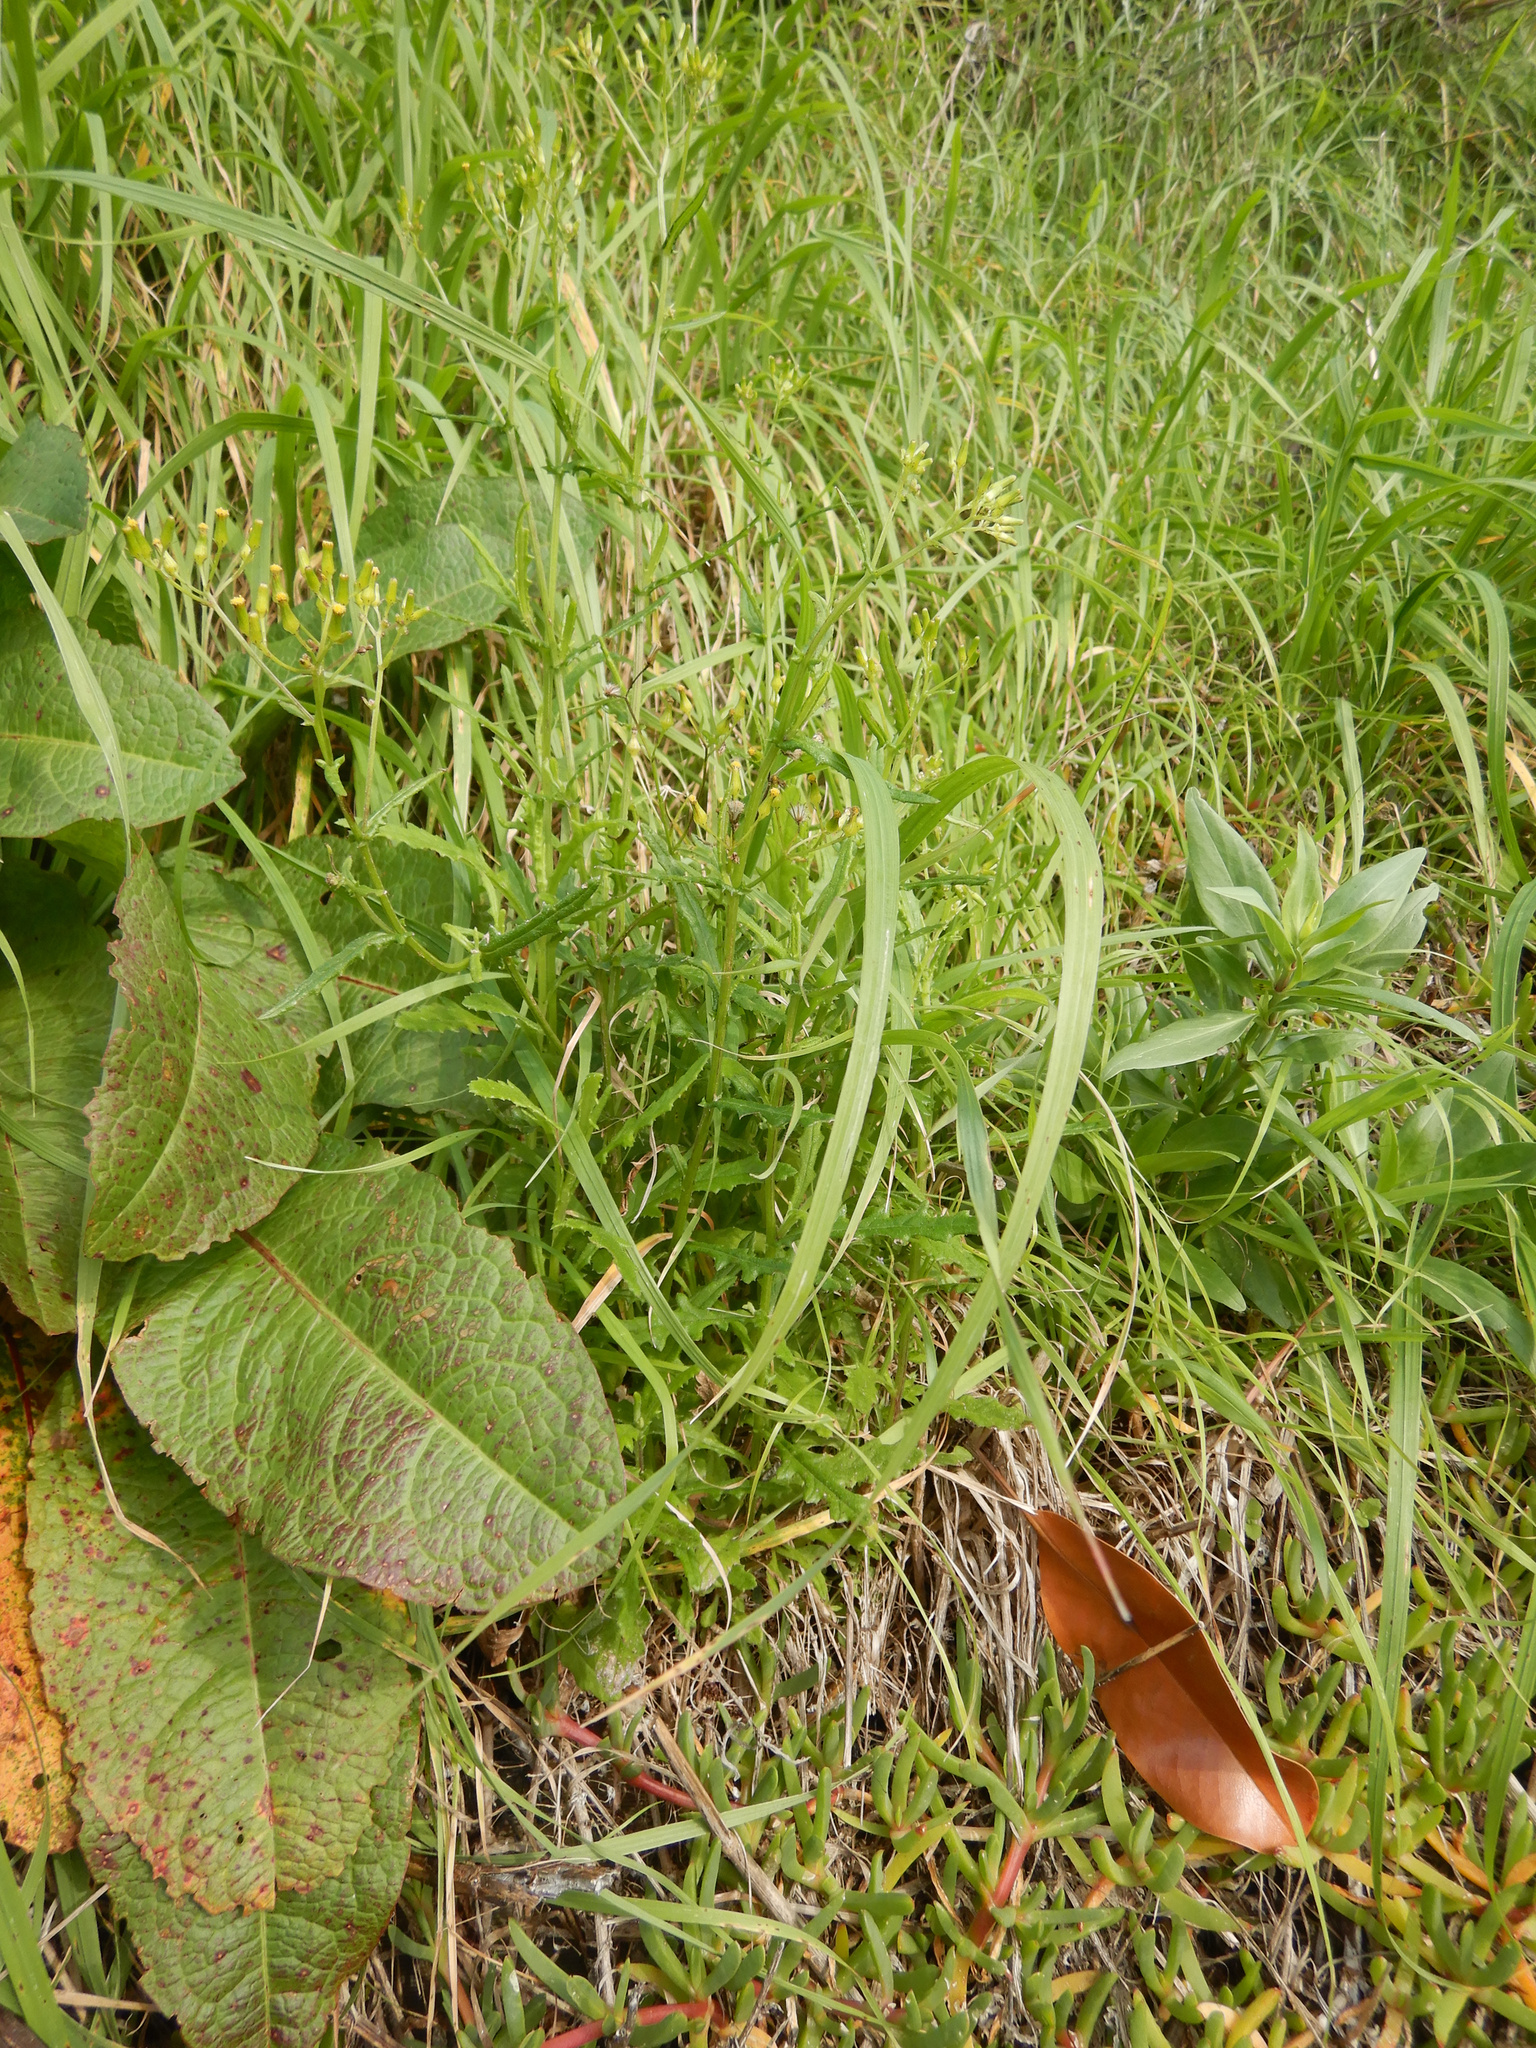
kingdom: Plantae
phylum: Tracheophyta
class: Magnoliopsida
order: Dipsacales
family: Caprifoliaceae
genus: Centranthus
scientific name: Centranthus ruber
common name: Red valerian
